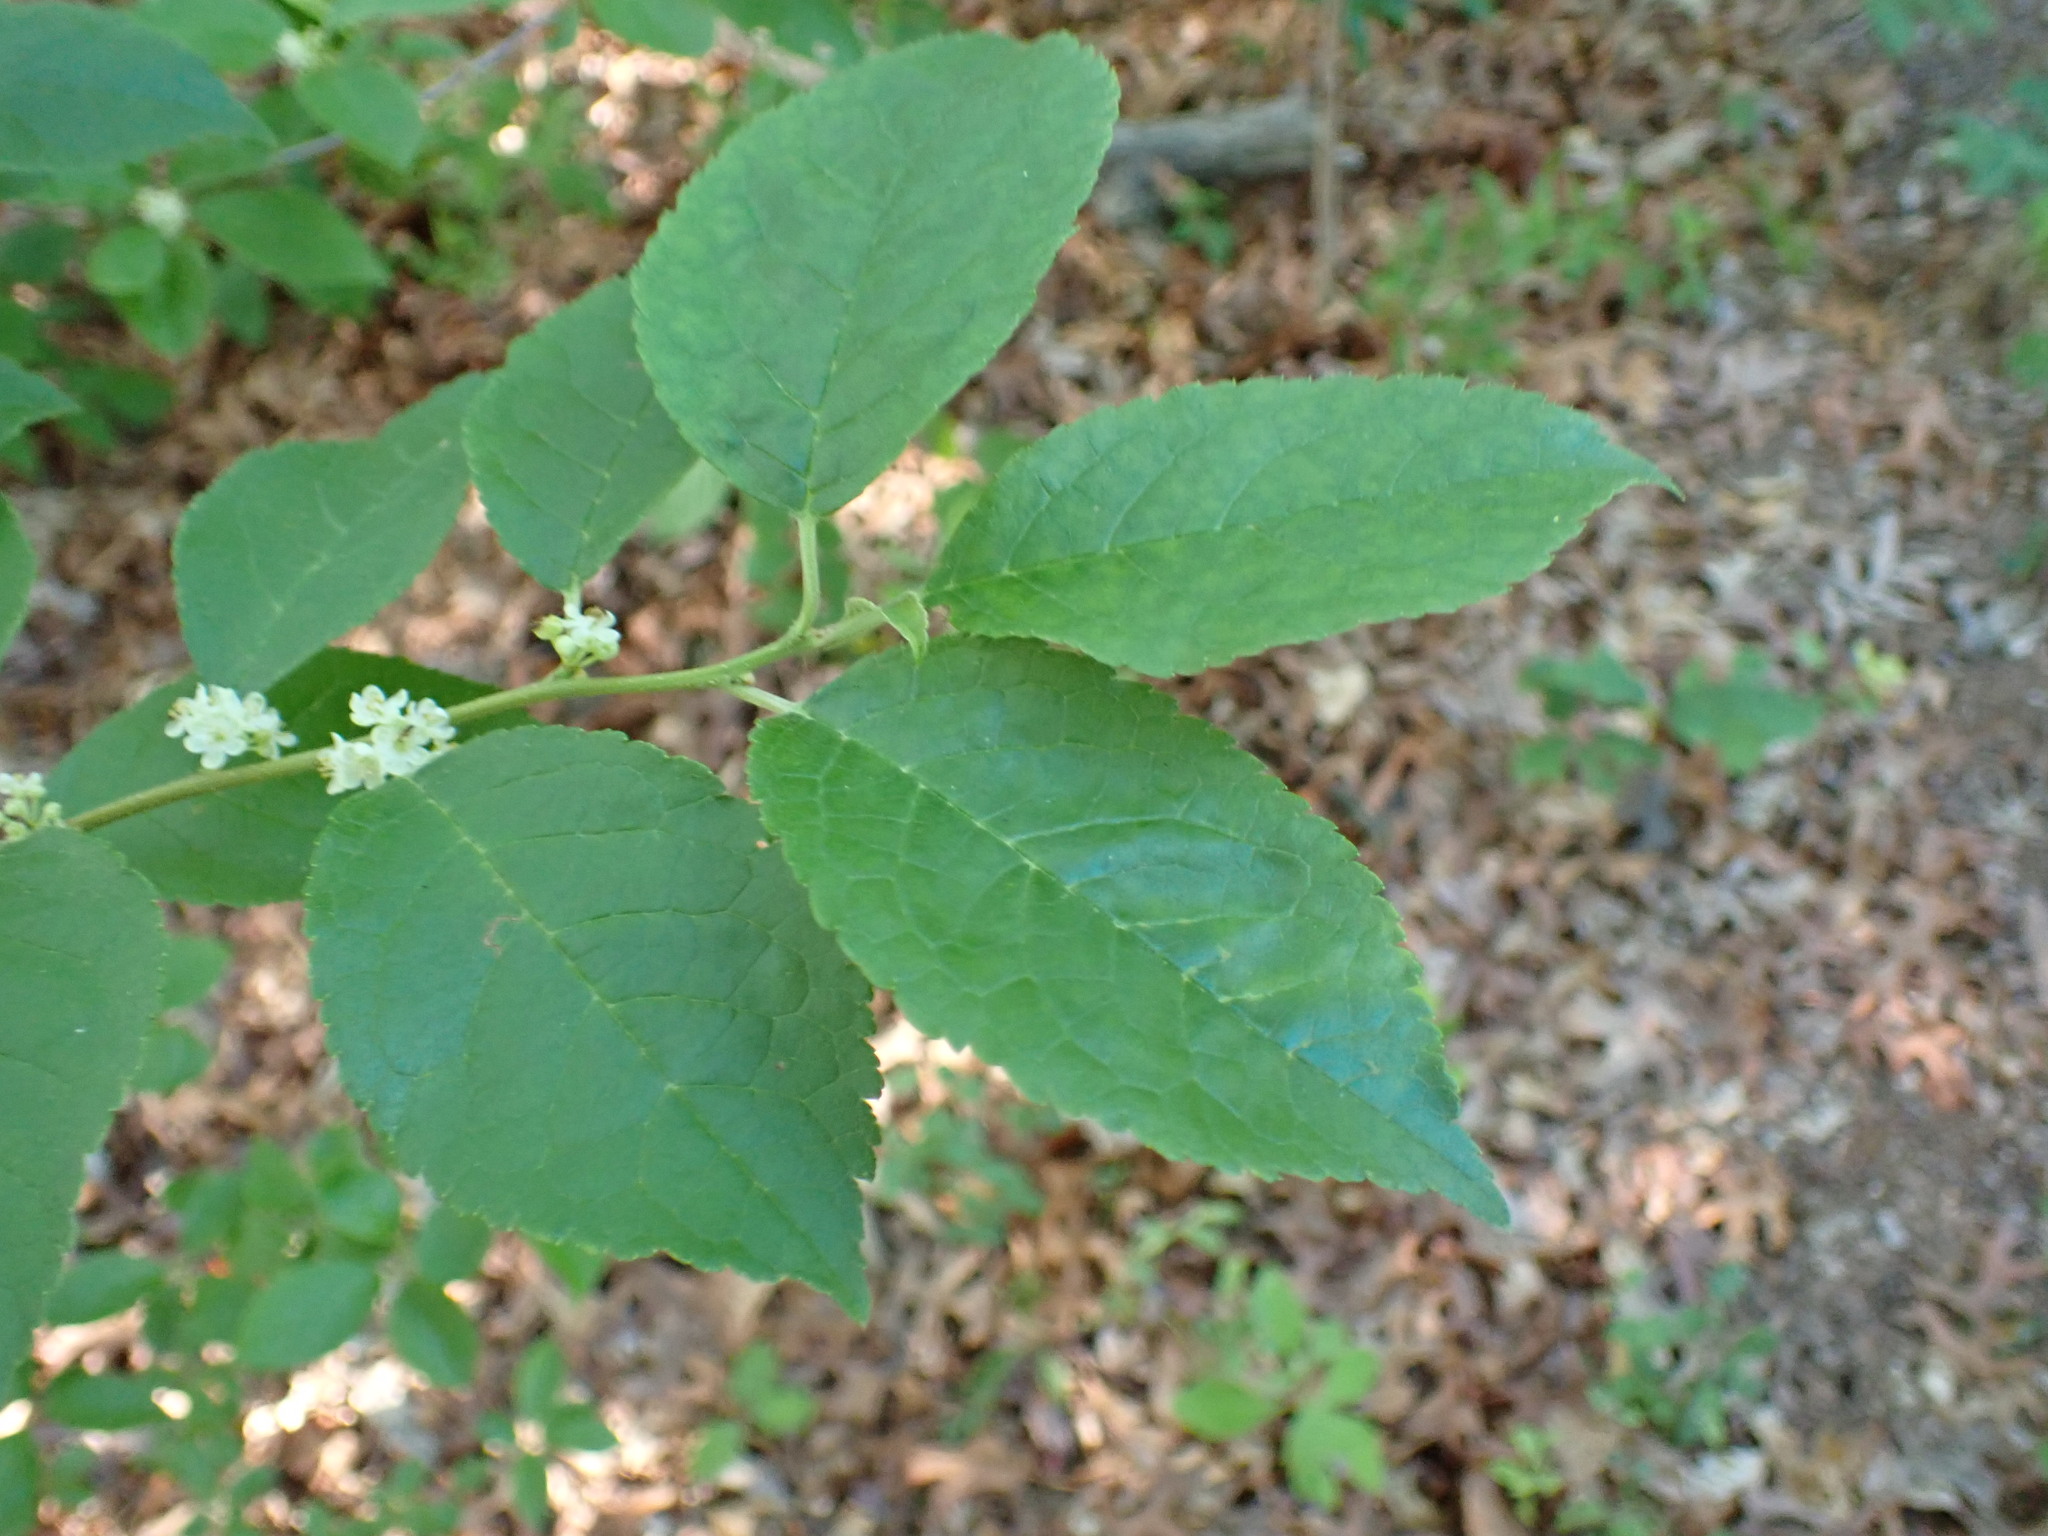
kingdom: Plantae
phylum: Tracheophyta
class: Magnoliopsida
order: Aquifoliales
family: Aquifoliaceae
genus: Ilex
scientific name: Ilex verticillata
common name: Virginia winterberry
